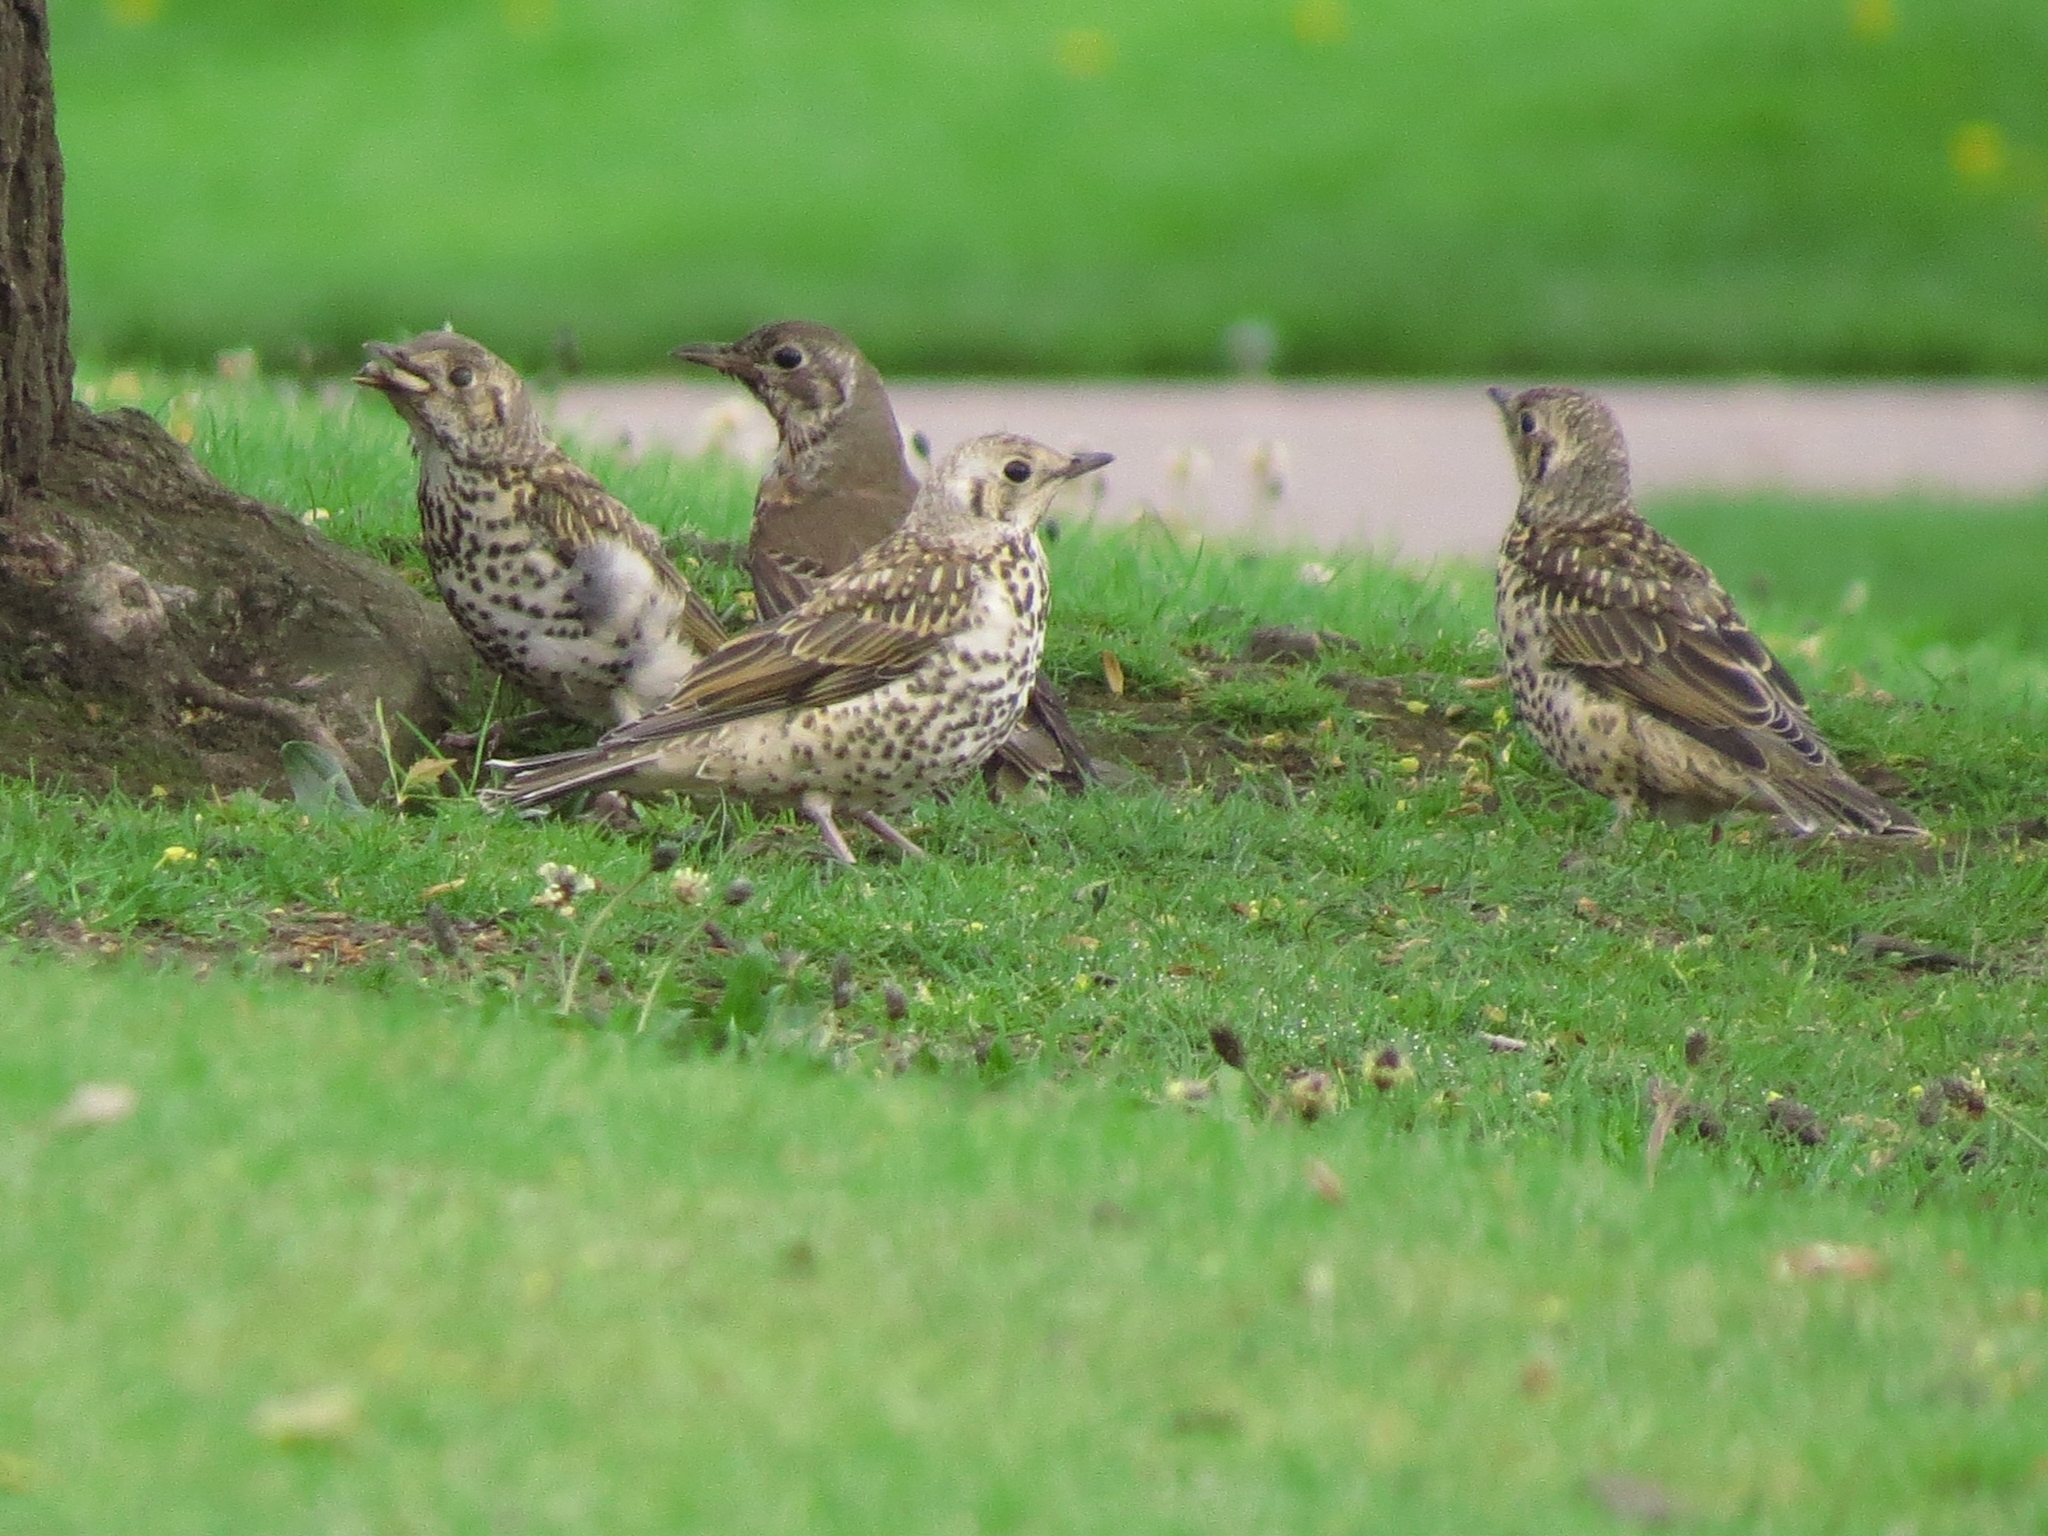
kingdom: Animalia
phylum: Chordata
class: Aves
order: Passeriformes
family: Turdidae
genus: Turdus
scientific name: Turdus viscivorus
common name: Mistle thrush
